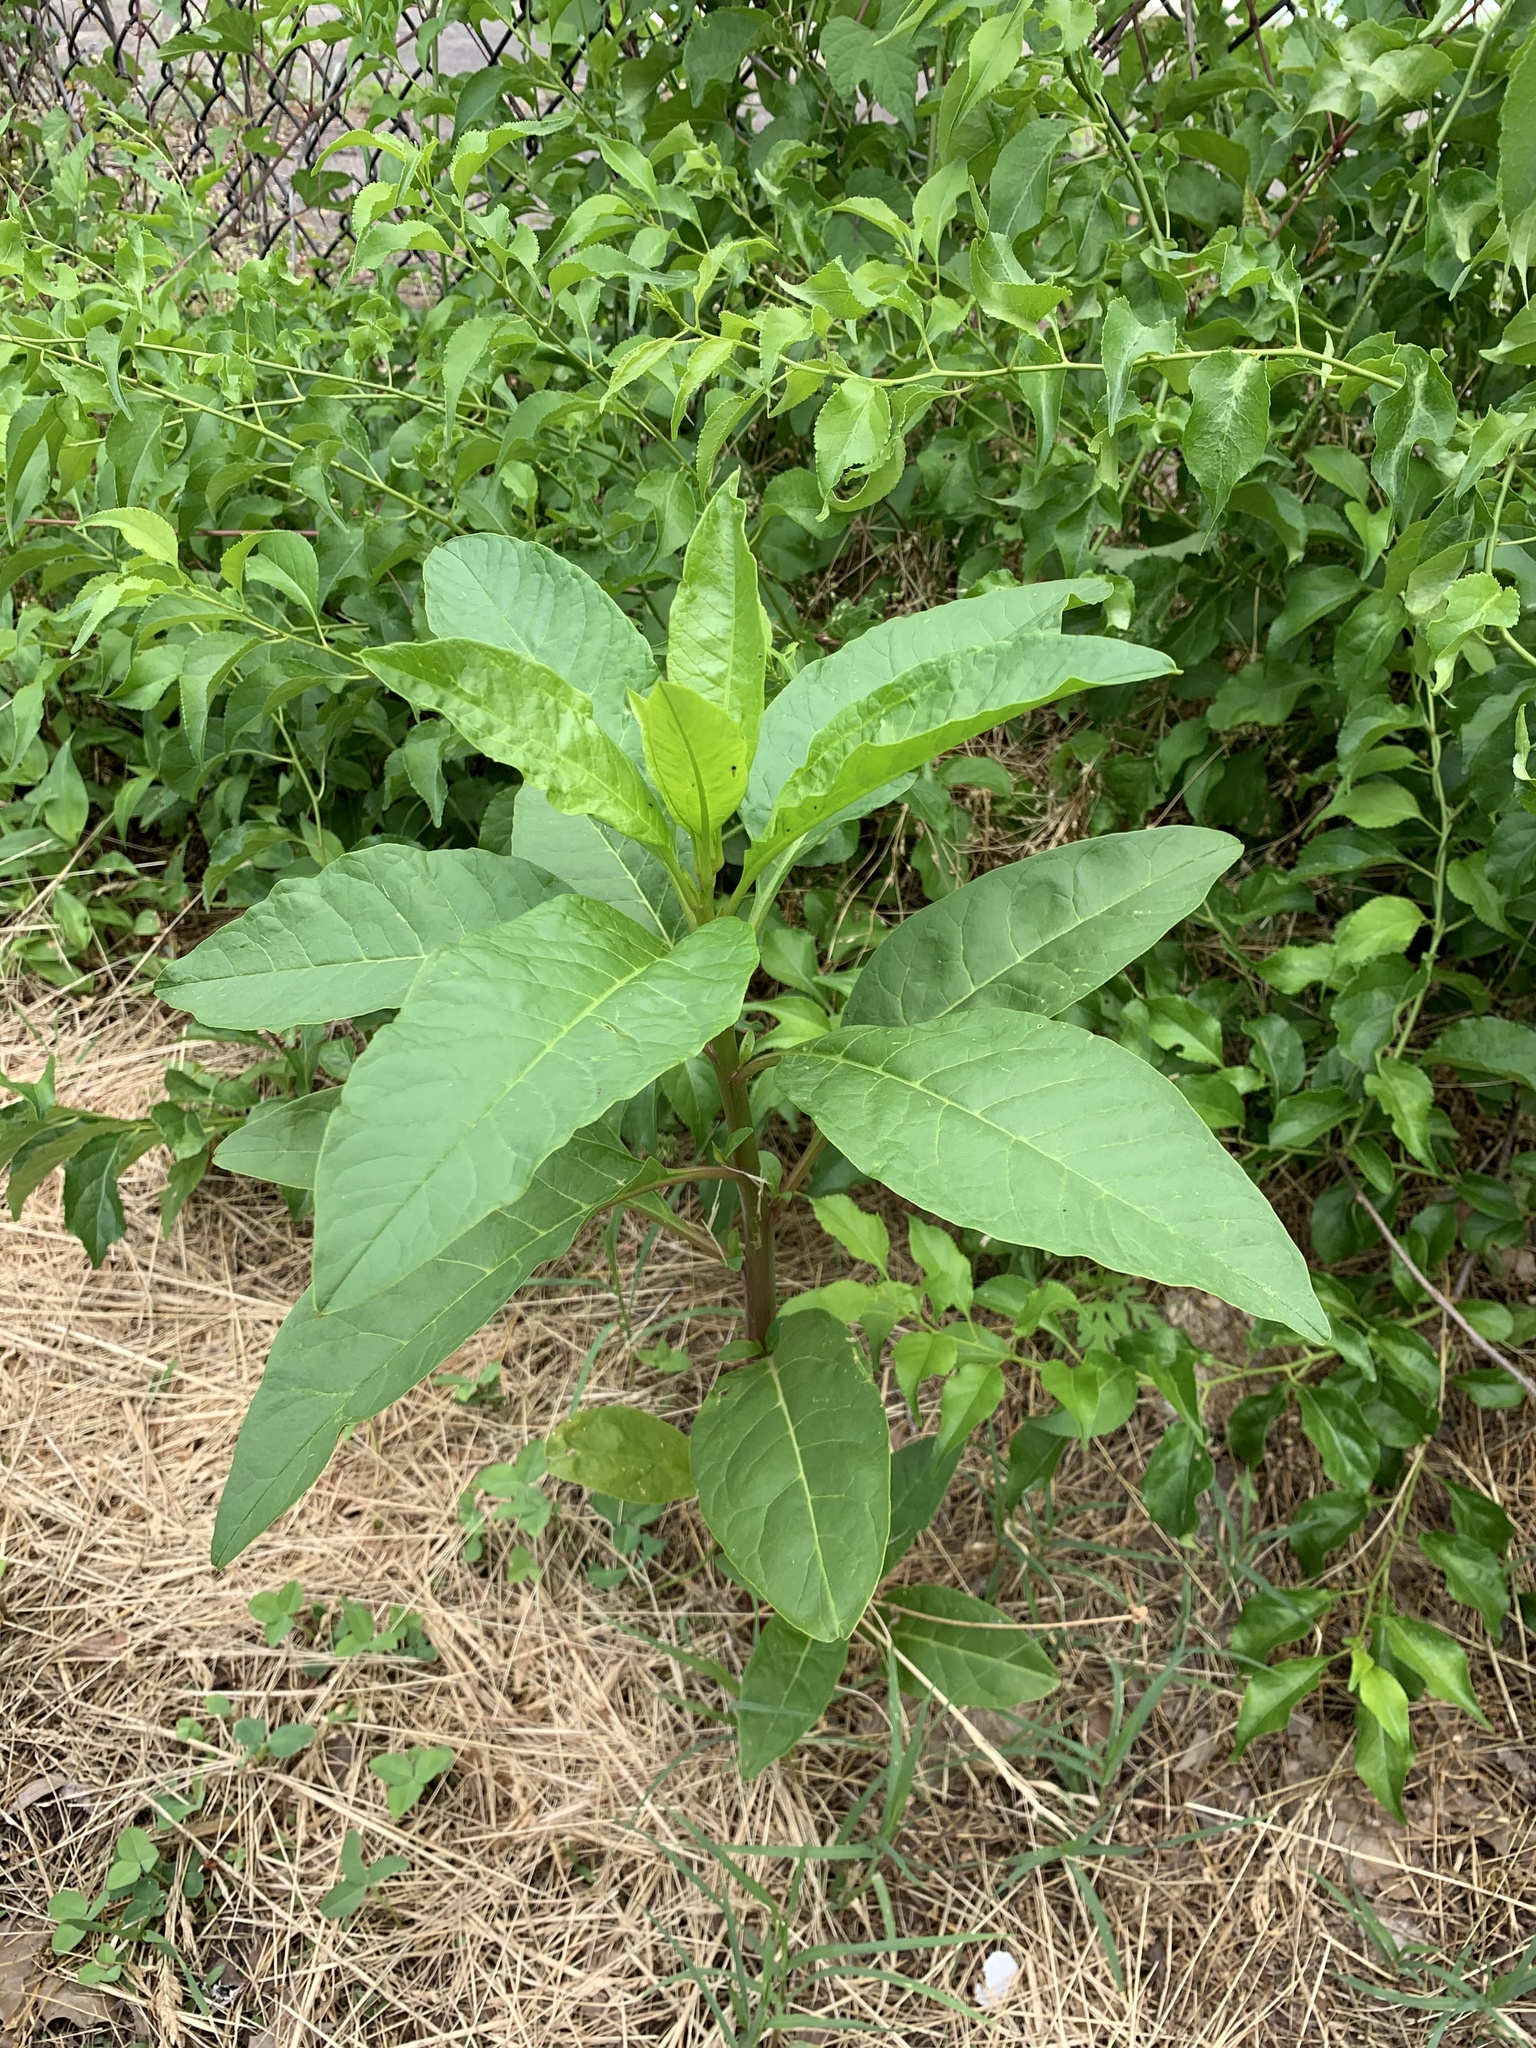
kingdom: Plantae
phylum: Tracheophyta
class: Magnoliopsida
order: Caryophyllales
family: Phytolaccaceae
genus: Phytolacca
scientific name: Phytolacca americana
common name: American pokeweed
